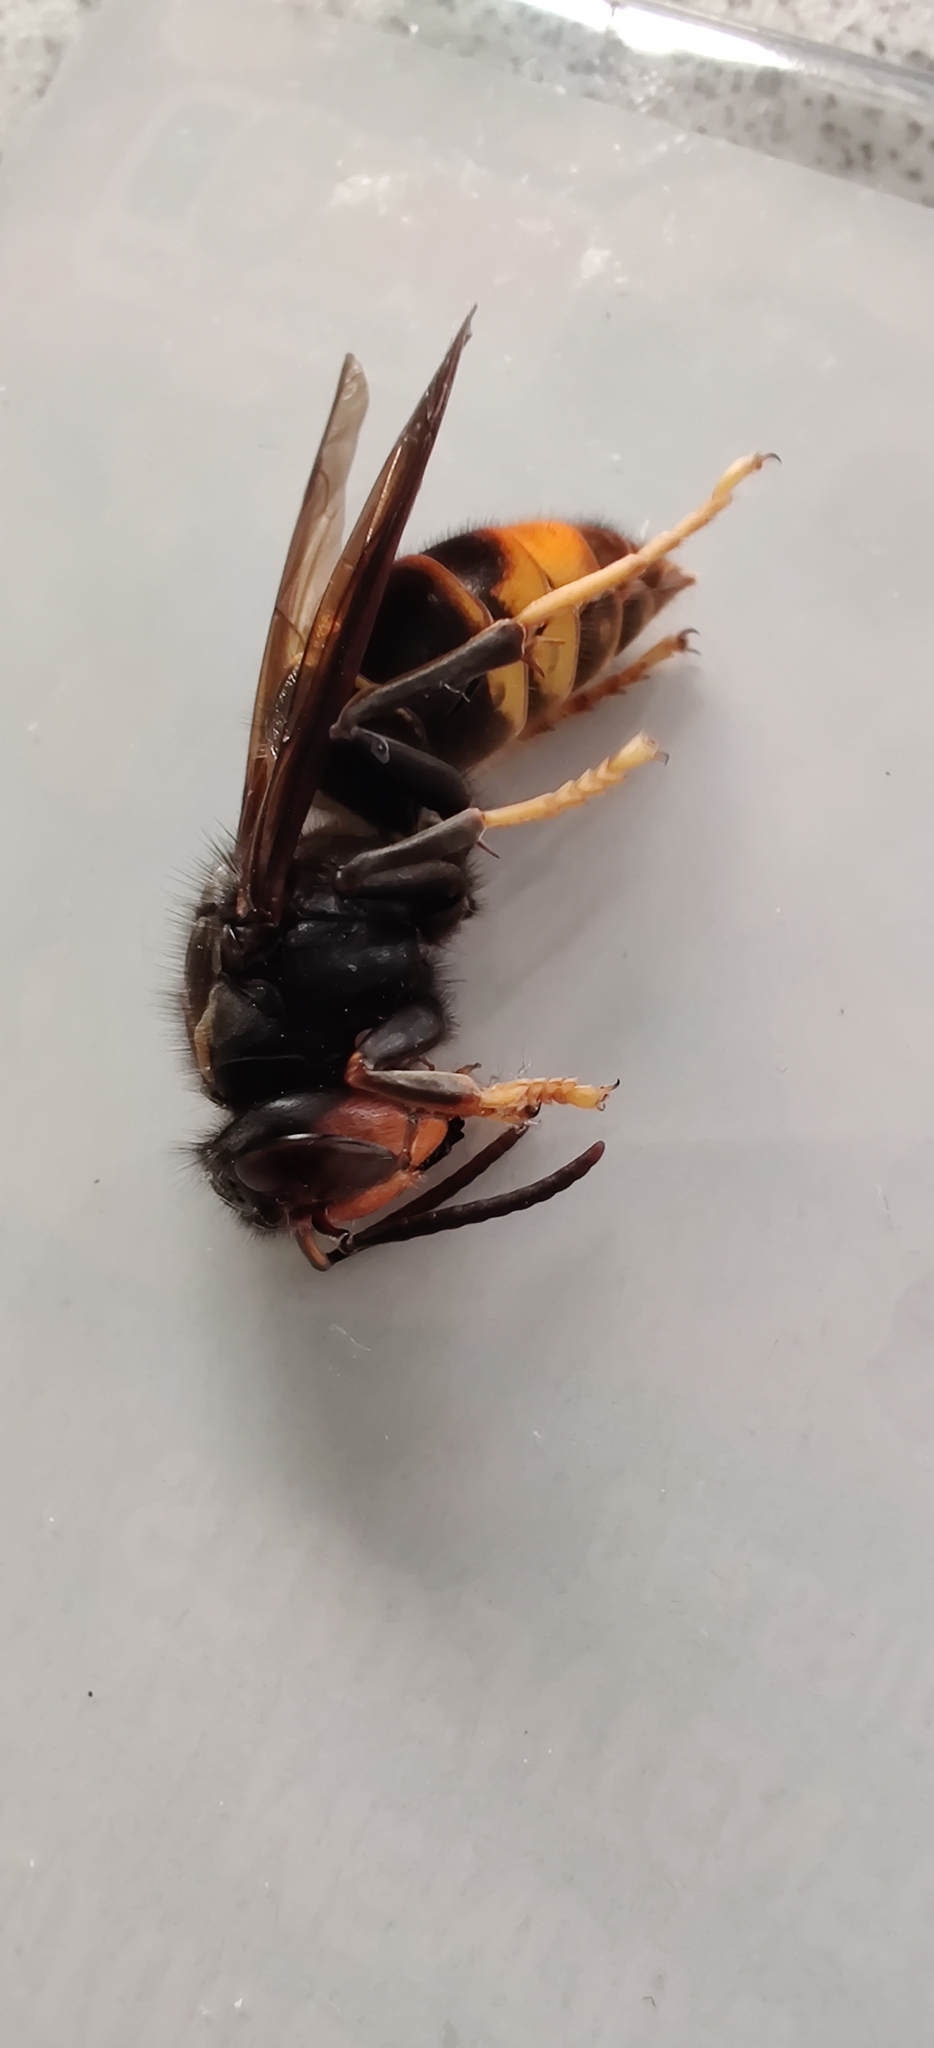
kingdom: Animalia
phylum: Arthropoda
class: Insecta
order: Hymenoptera
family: Vespidae
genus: Vespa
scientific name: Vespa velutina
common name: Asian hornet
